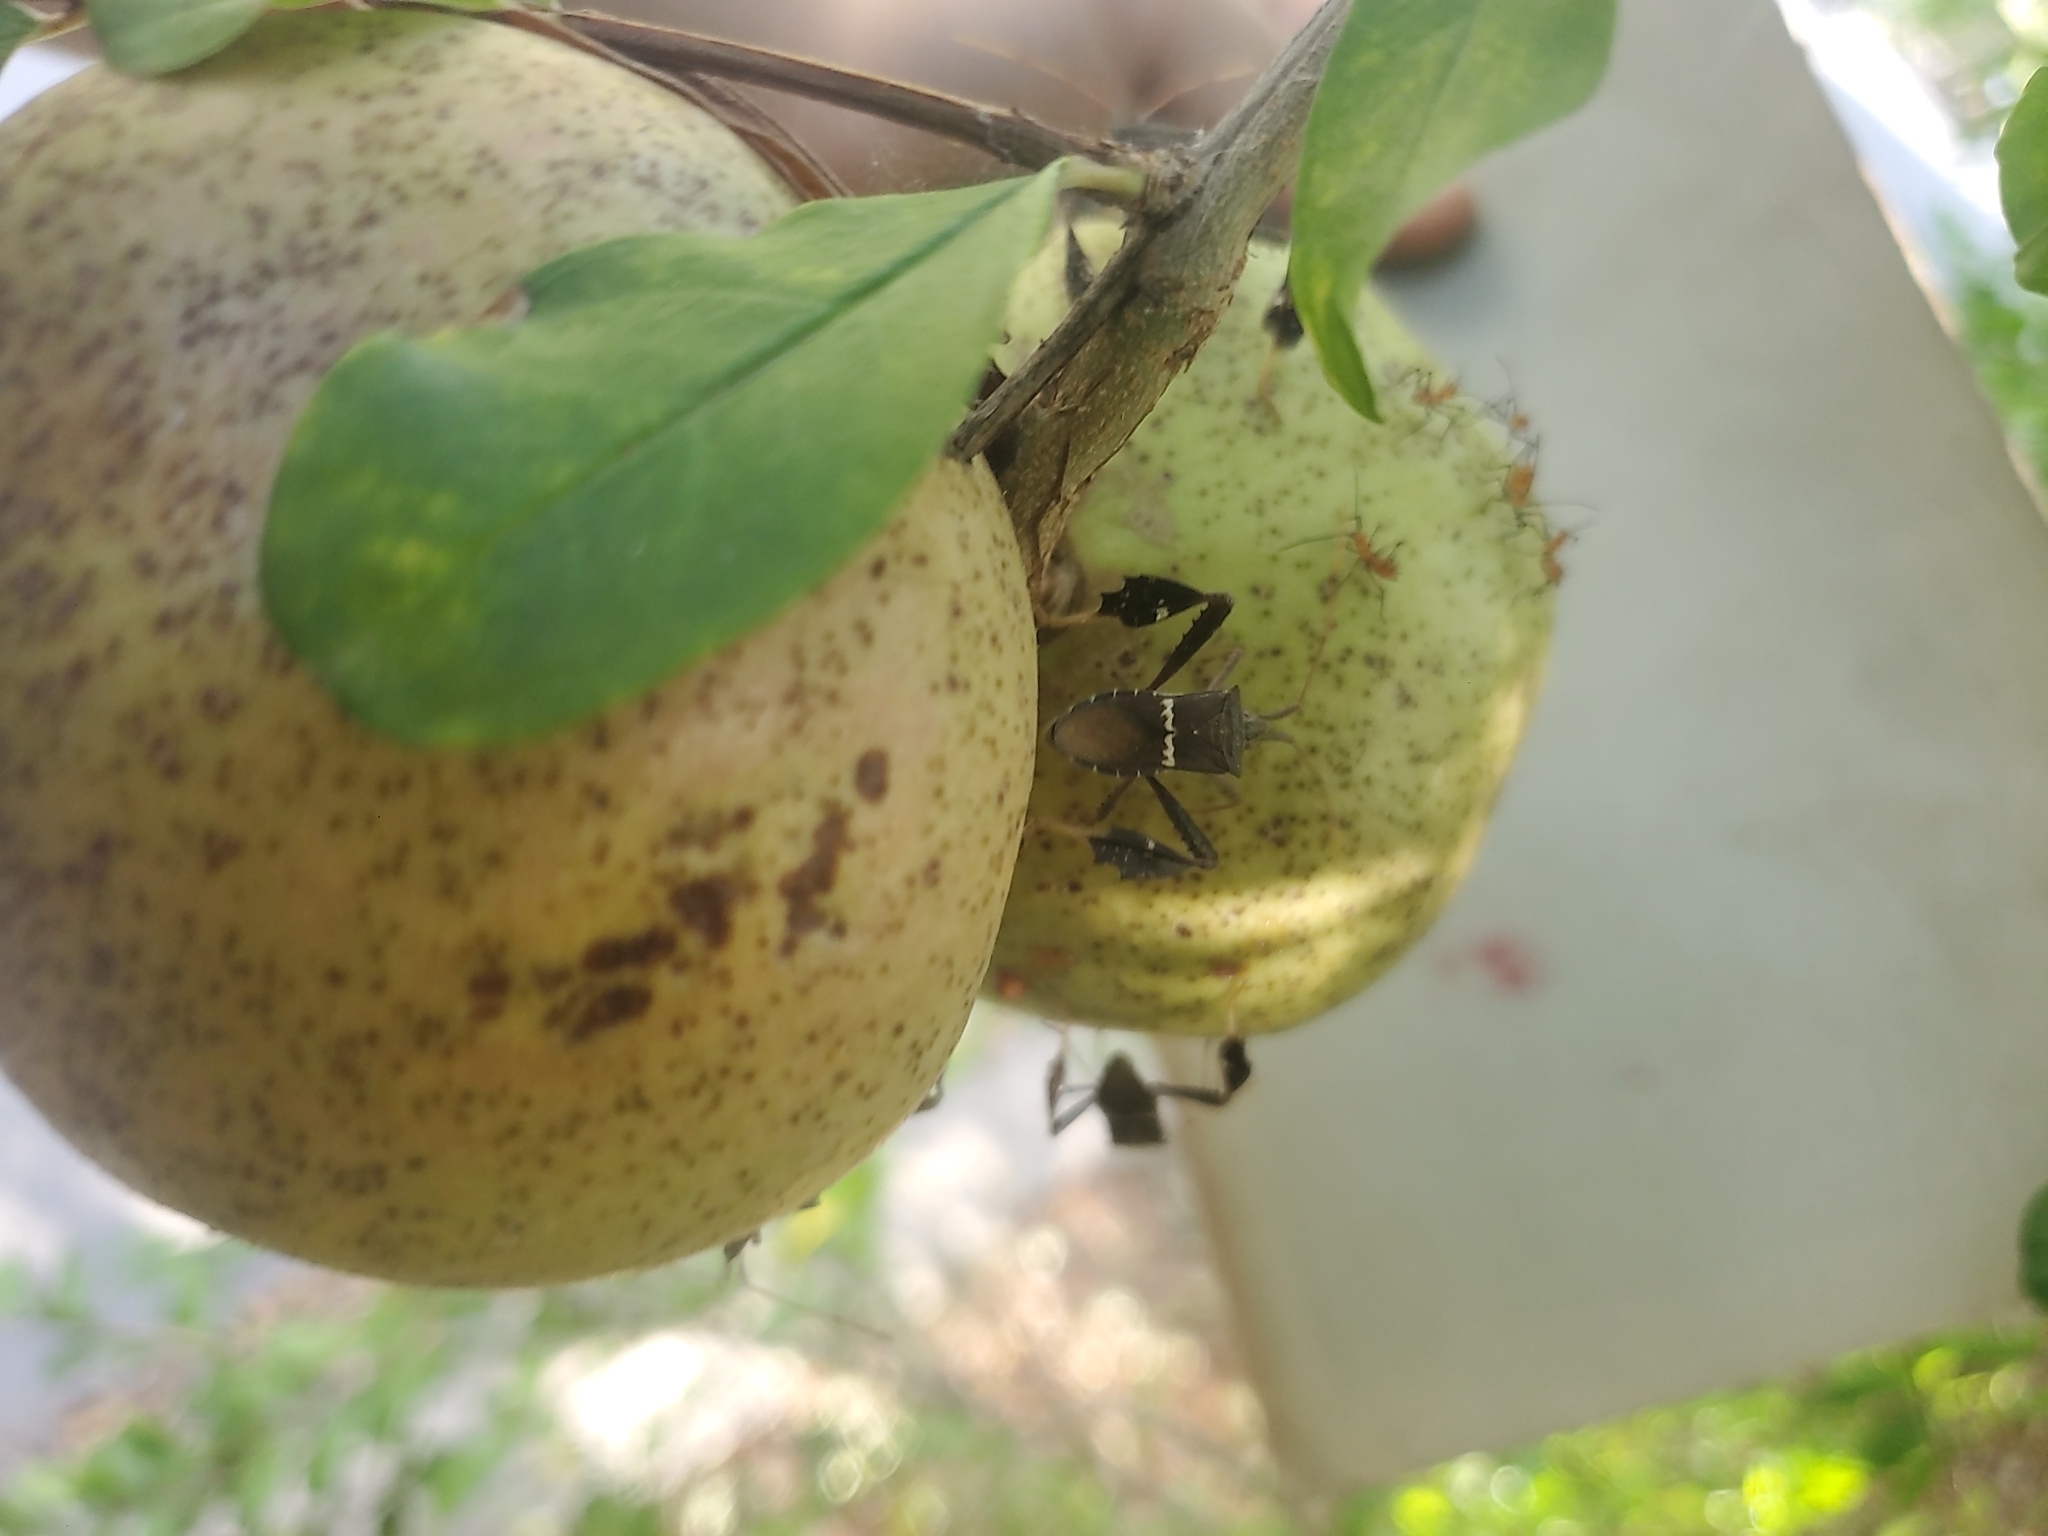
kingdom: Animalia
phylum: Arthropoda
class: Insecta
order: Hemiptera
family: Coreidae
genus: Leptoglossus
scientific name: Leptoglossus zonatus
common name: Large-legged bug
